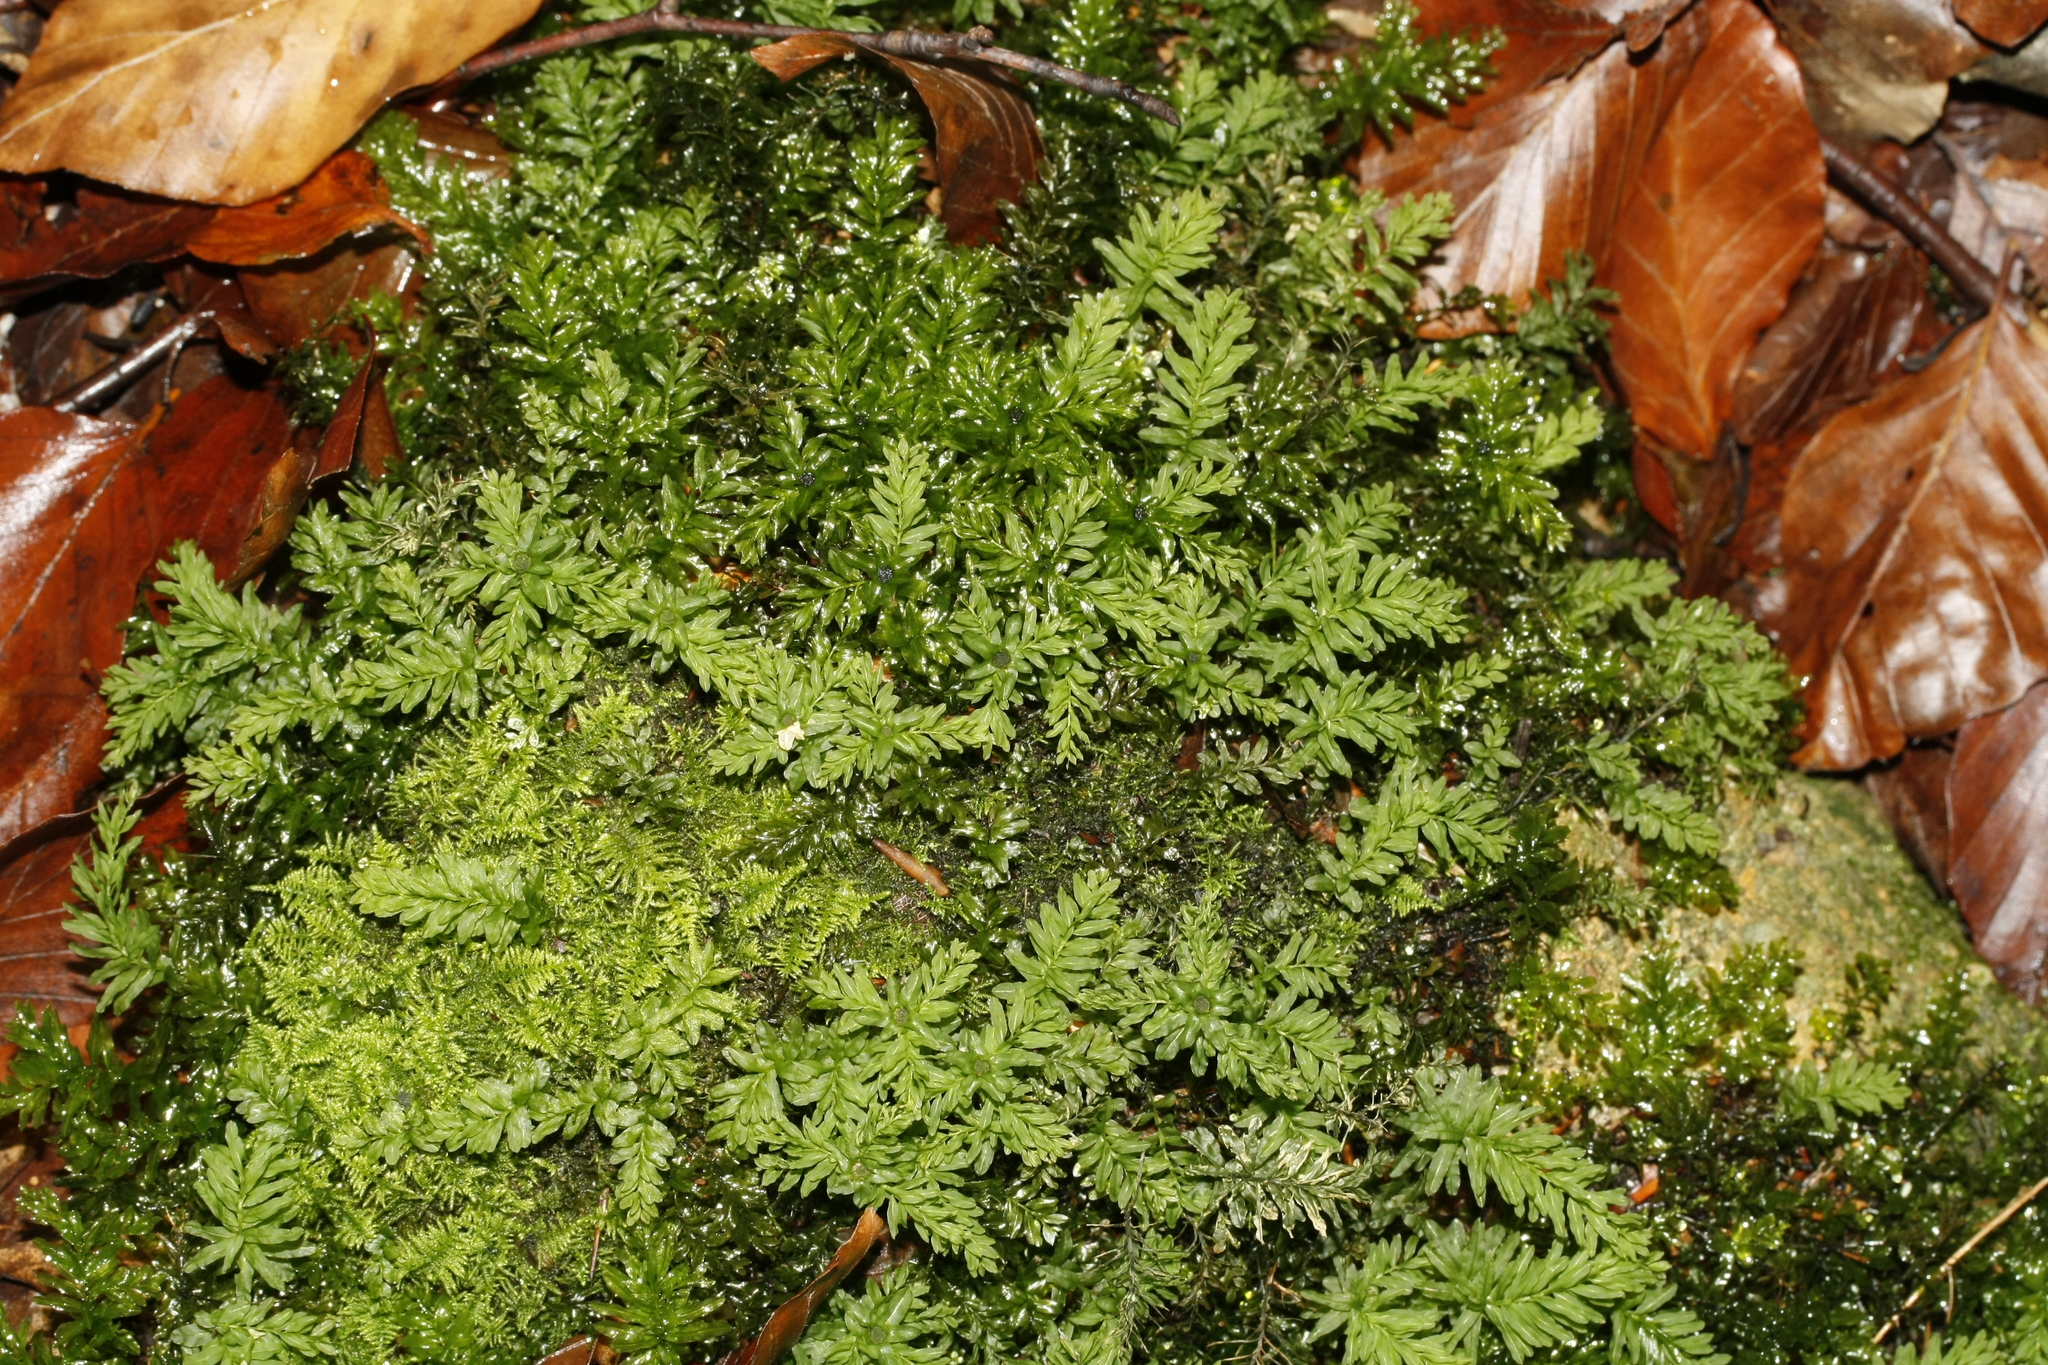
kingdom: Plantae
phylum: Bryophyta
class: Bryopsida
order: Bryales
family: Mniaceae
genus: Plagiomnium
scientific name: Plagiomnium undulatum
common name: Hart's-tongue thyme-moss
